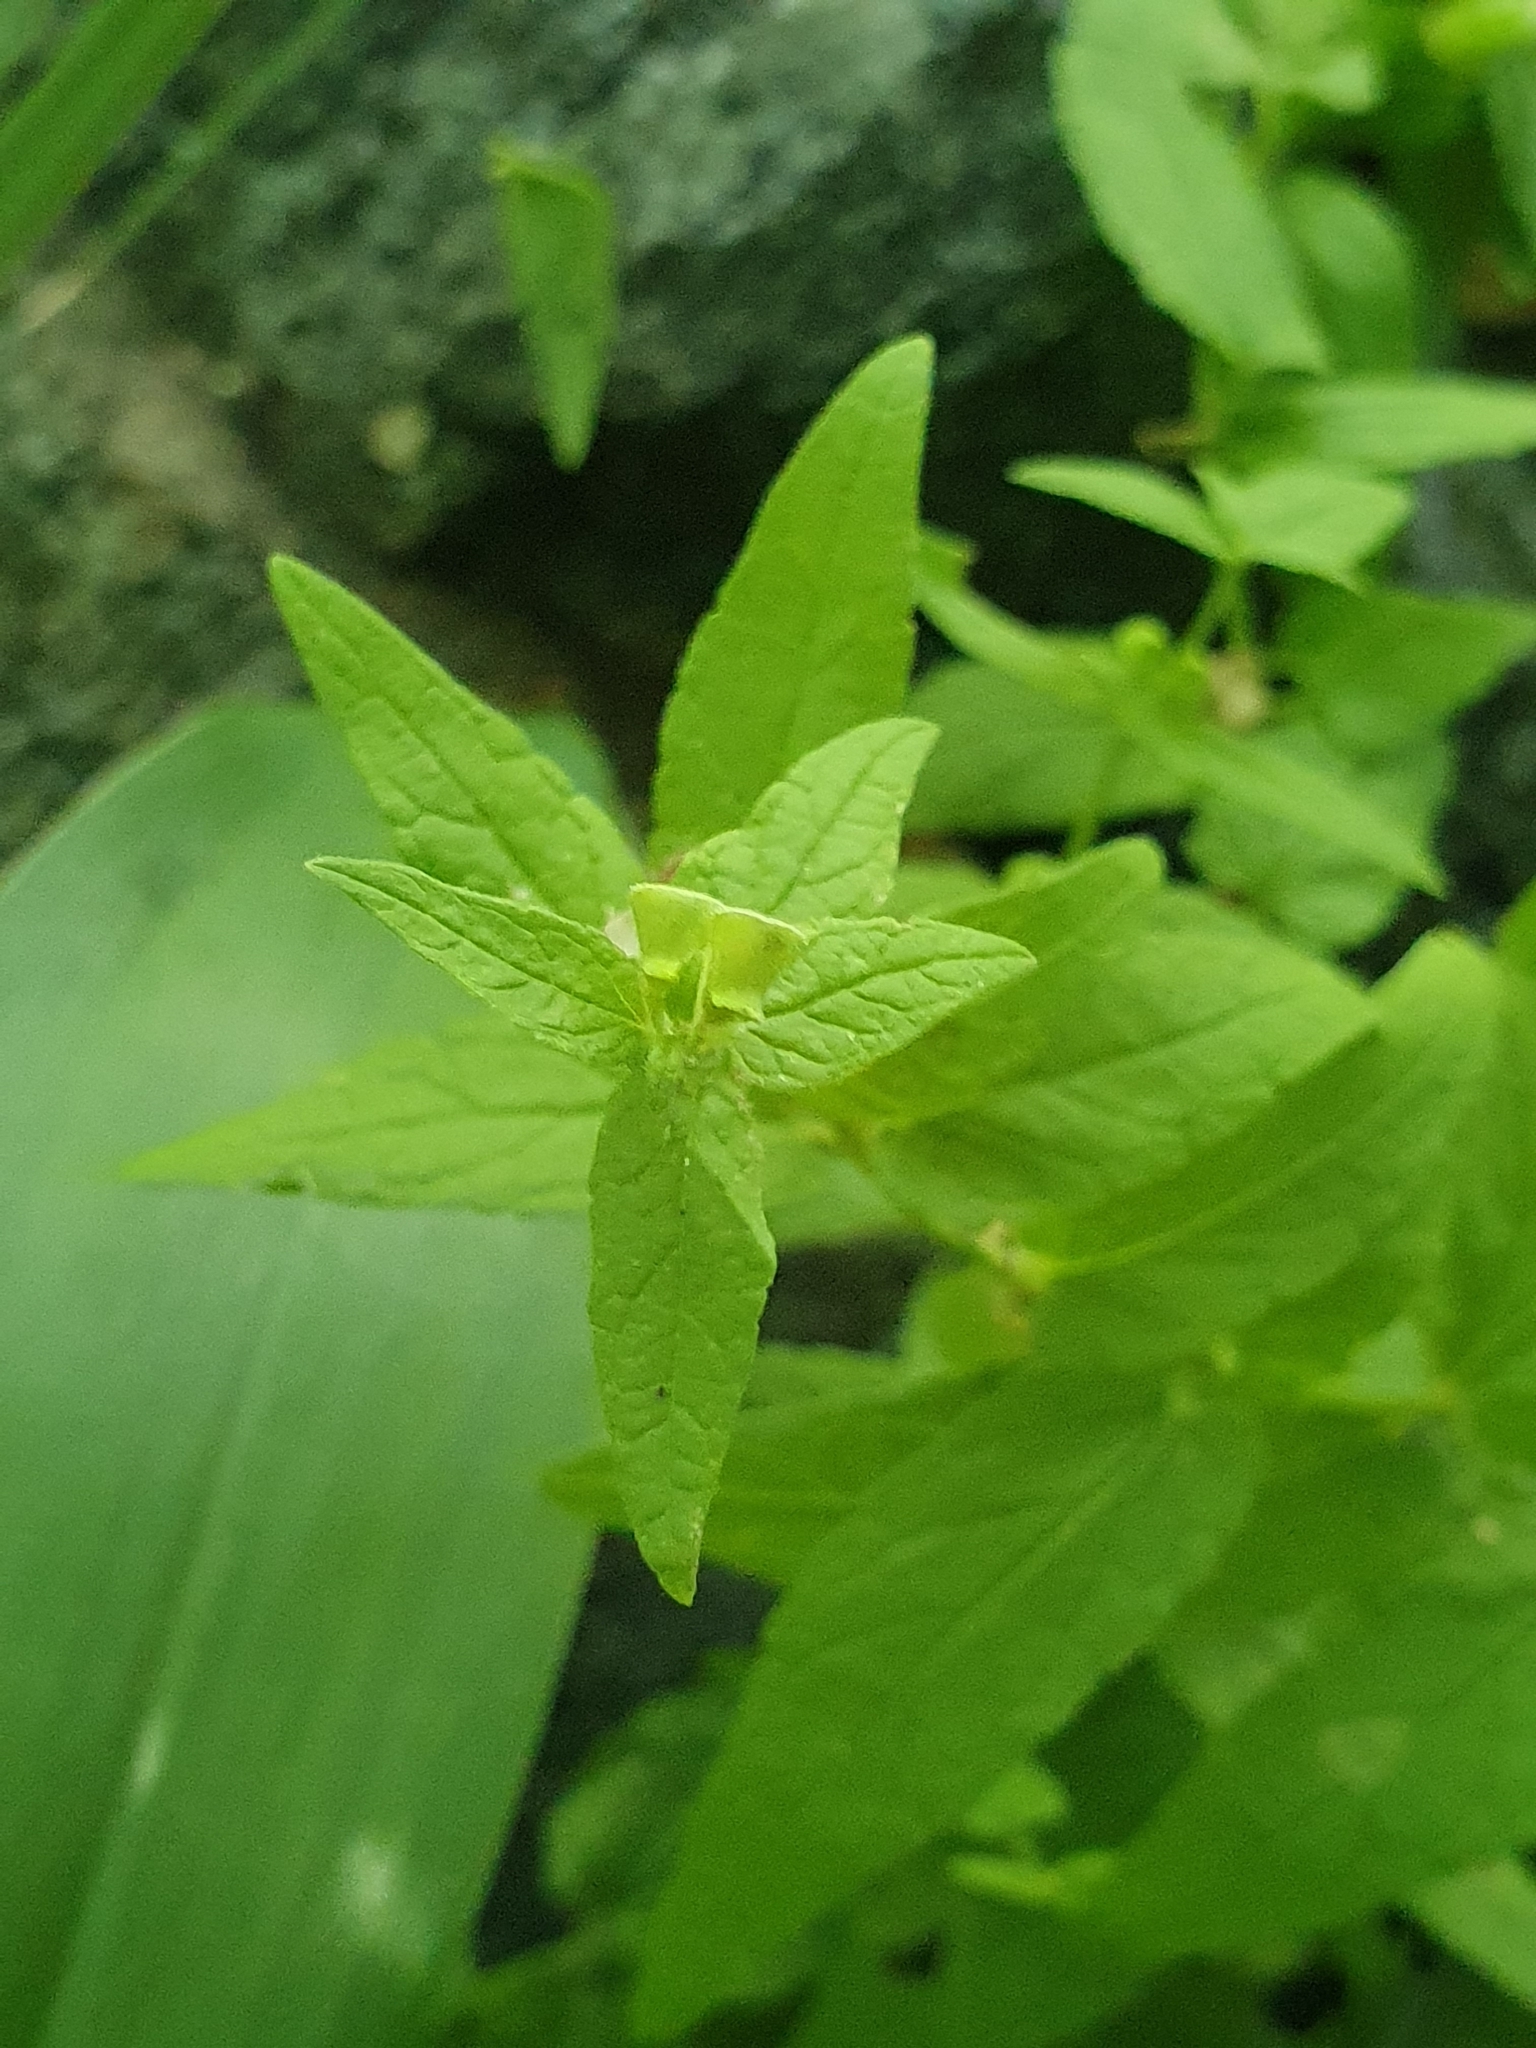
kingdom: Plantae
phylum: Tracheophyta
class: Magnoliopsida
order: Lamiales
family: Lamiaceae
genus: Scutellaria
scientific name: Scutellaria galericulata
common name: Skullcap
